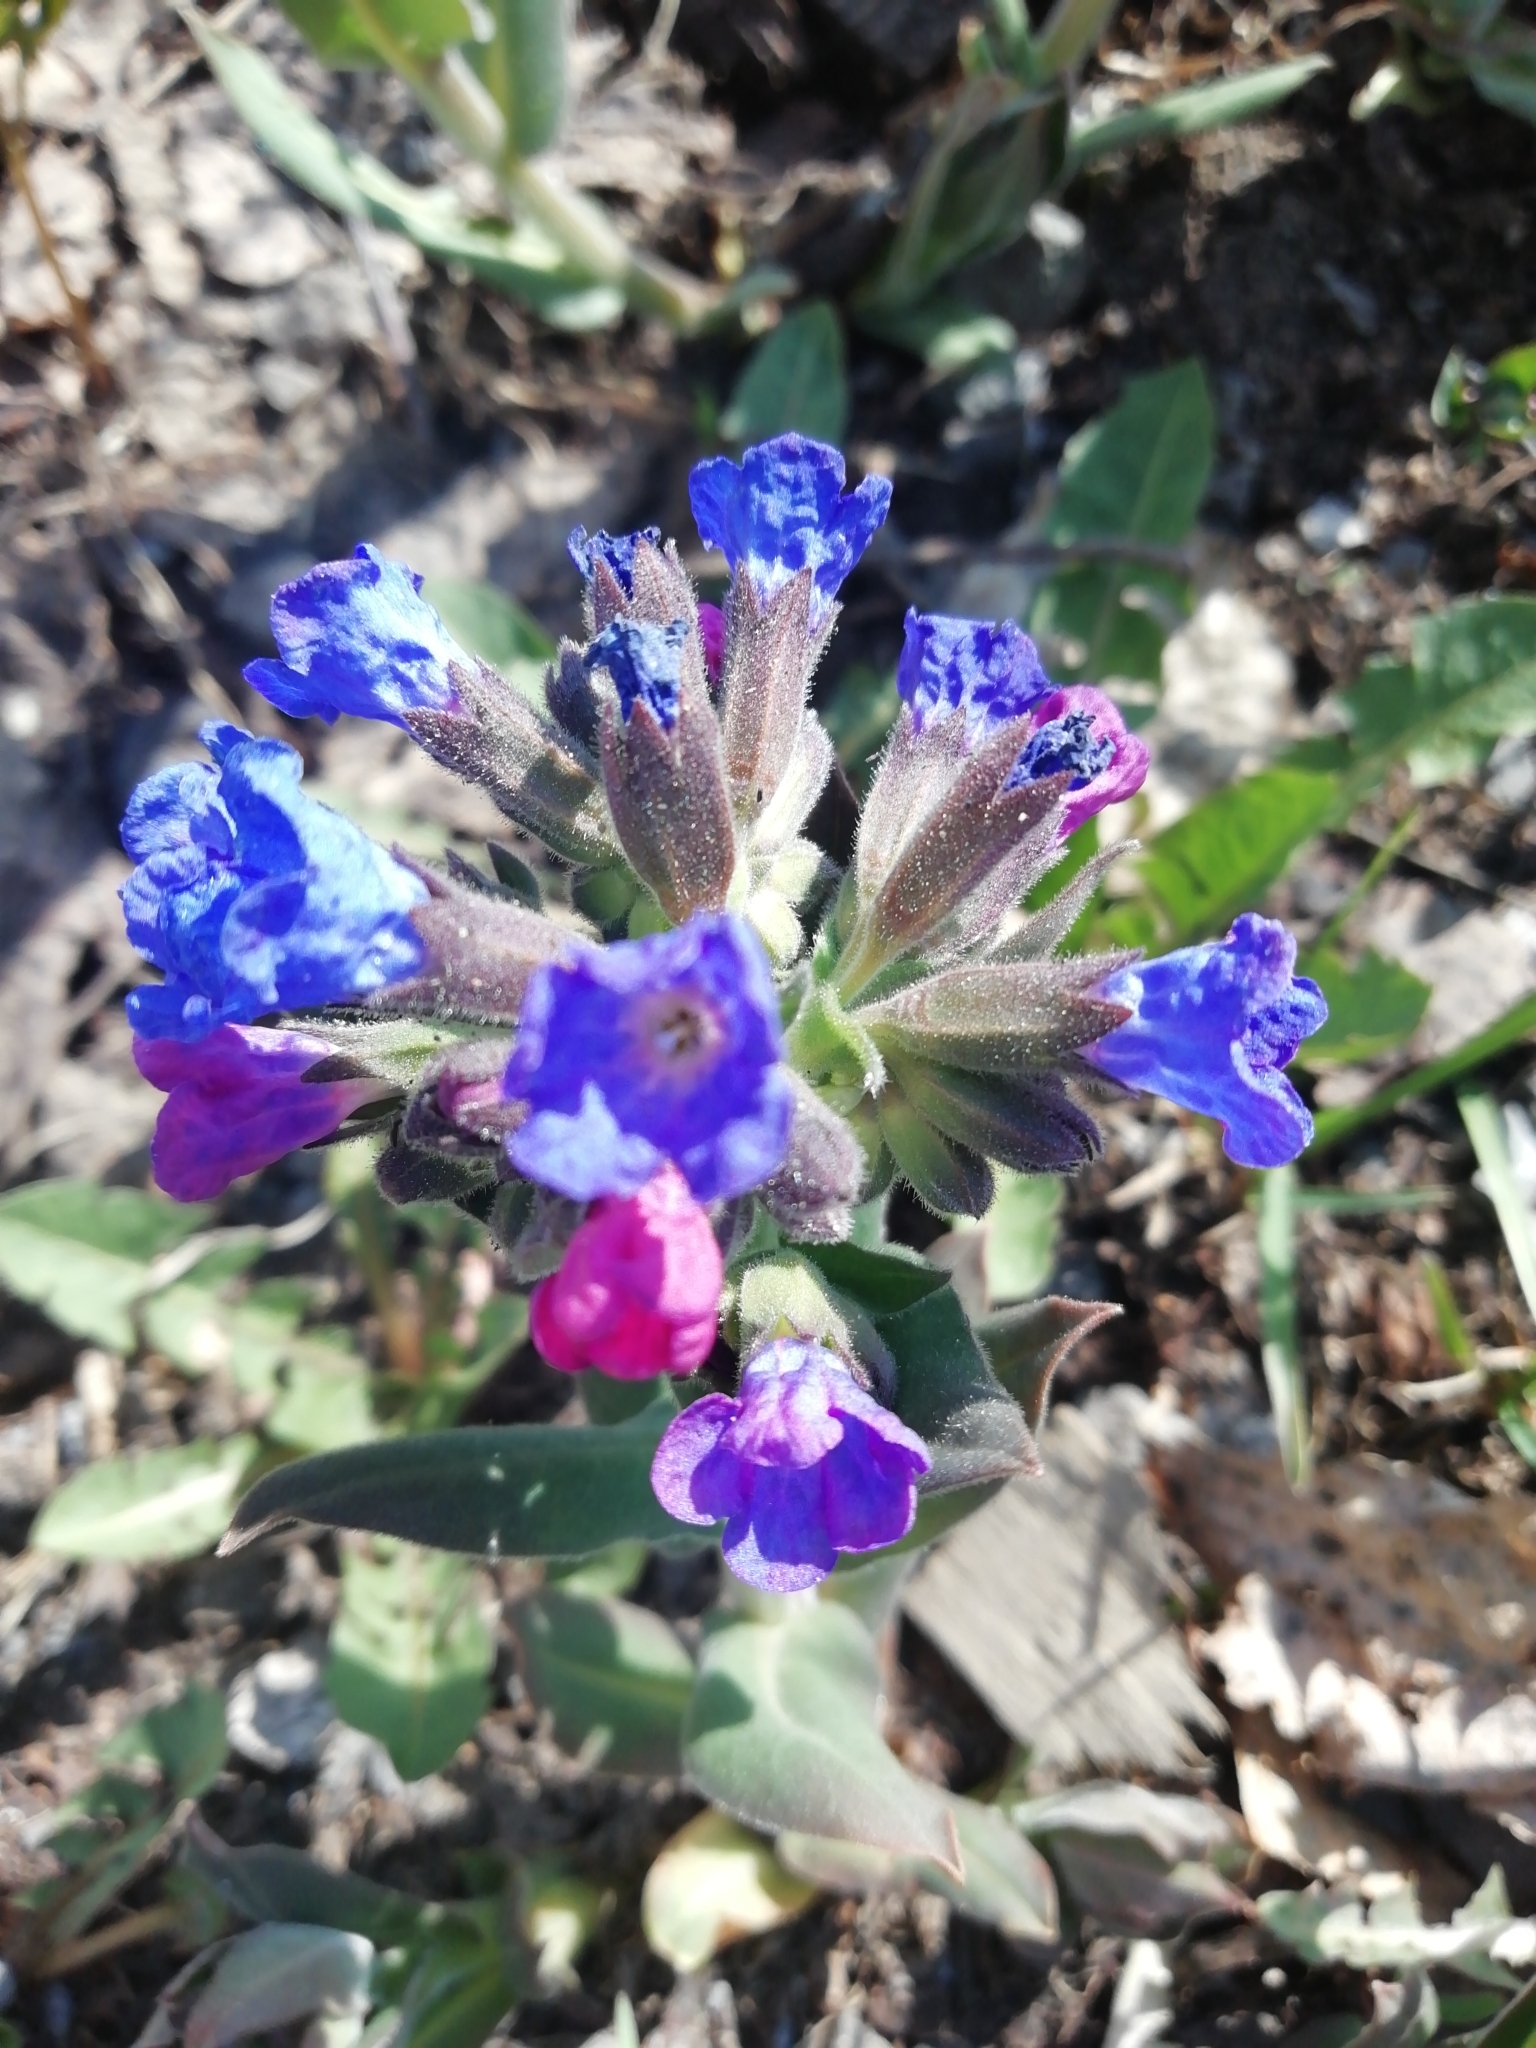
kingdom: Plantae
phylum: Tracheophyta
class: Magnoliopsida
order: Boraginales
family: Boraginaceae
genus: Pulmonaria
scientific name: Pulmonaria mollis
